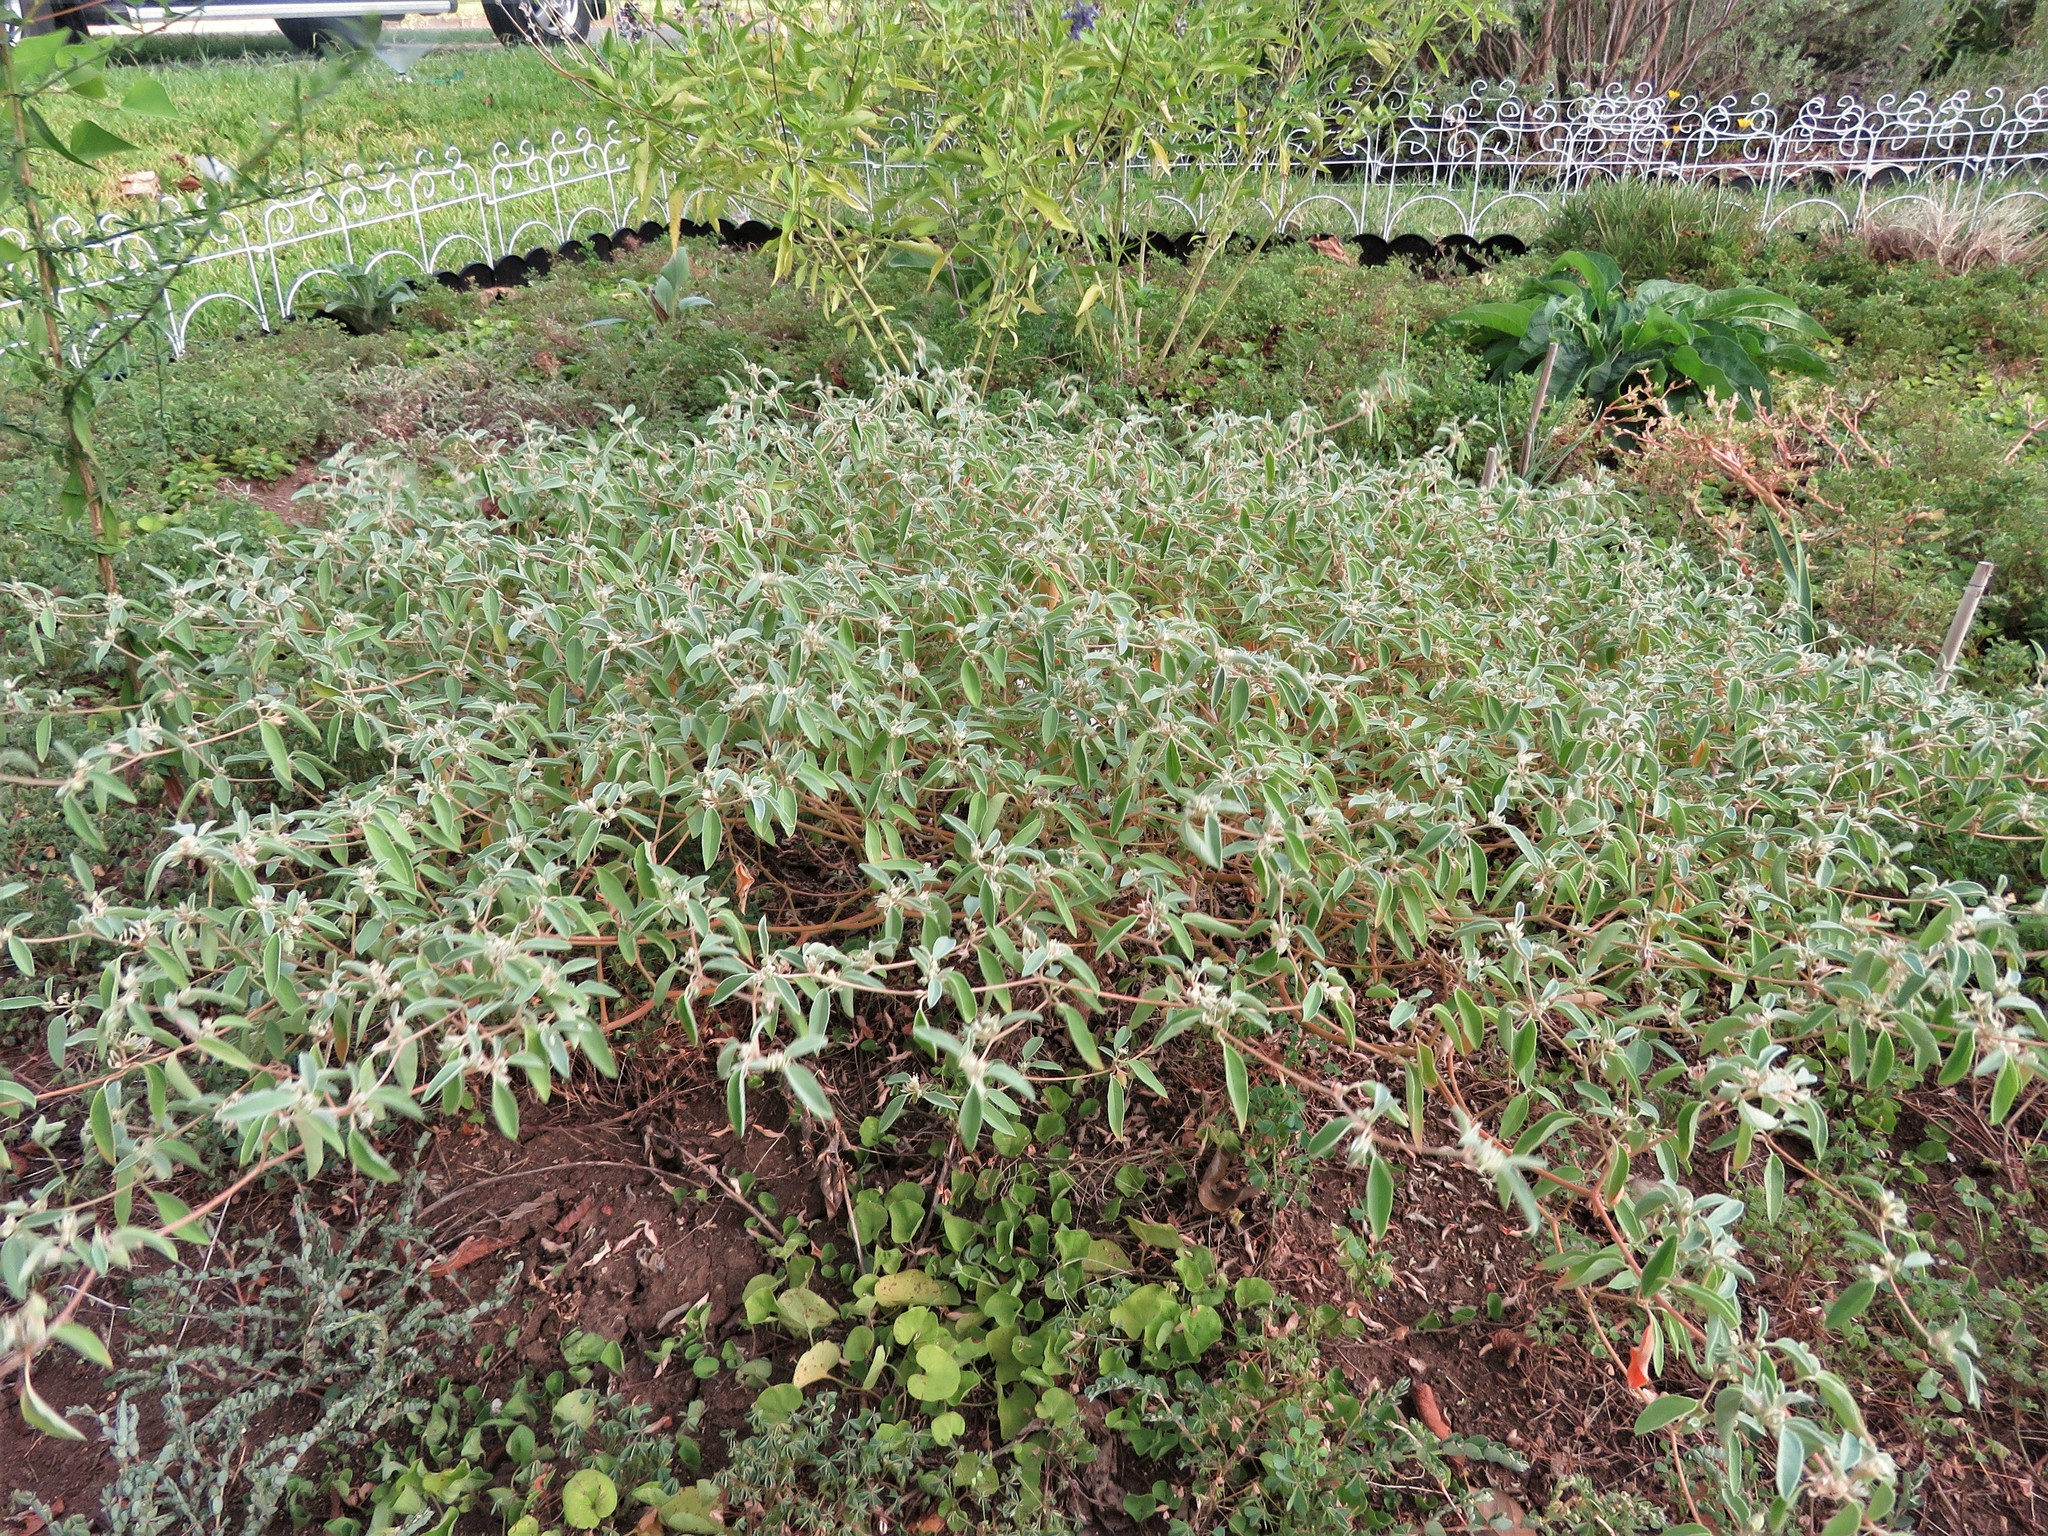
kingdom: Plantae
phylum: Tracheophyta
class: Magnoliopsida
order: Malpighiales
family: Euphorbiaceae
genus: Croton
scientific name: Croton monanthogynus
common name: One-seed croton
